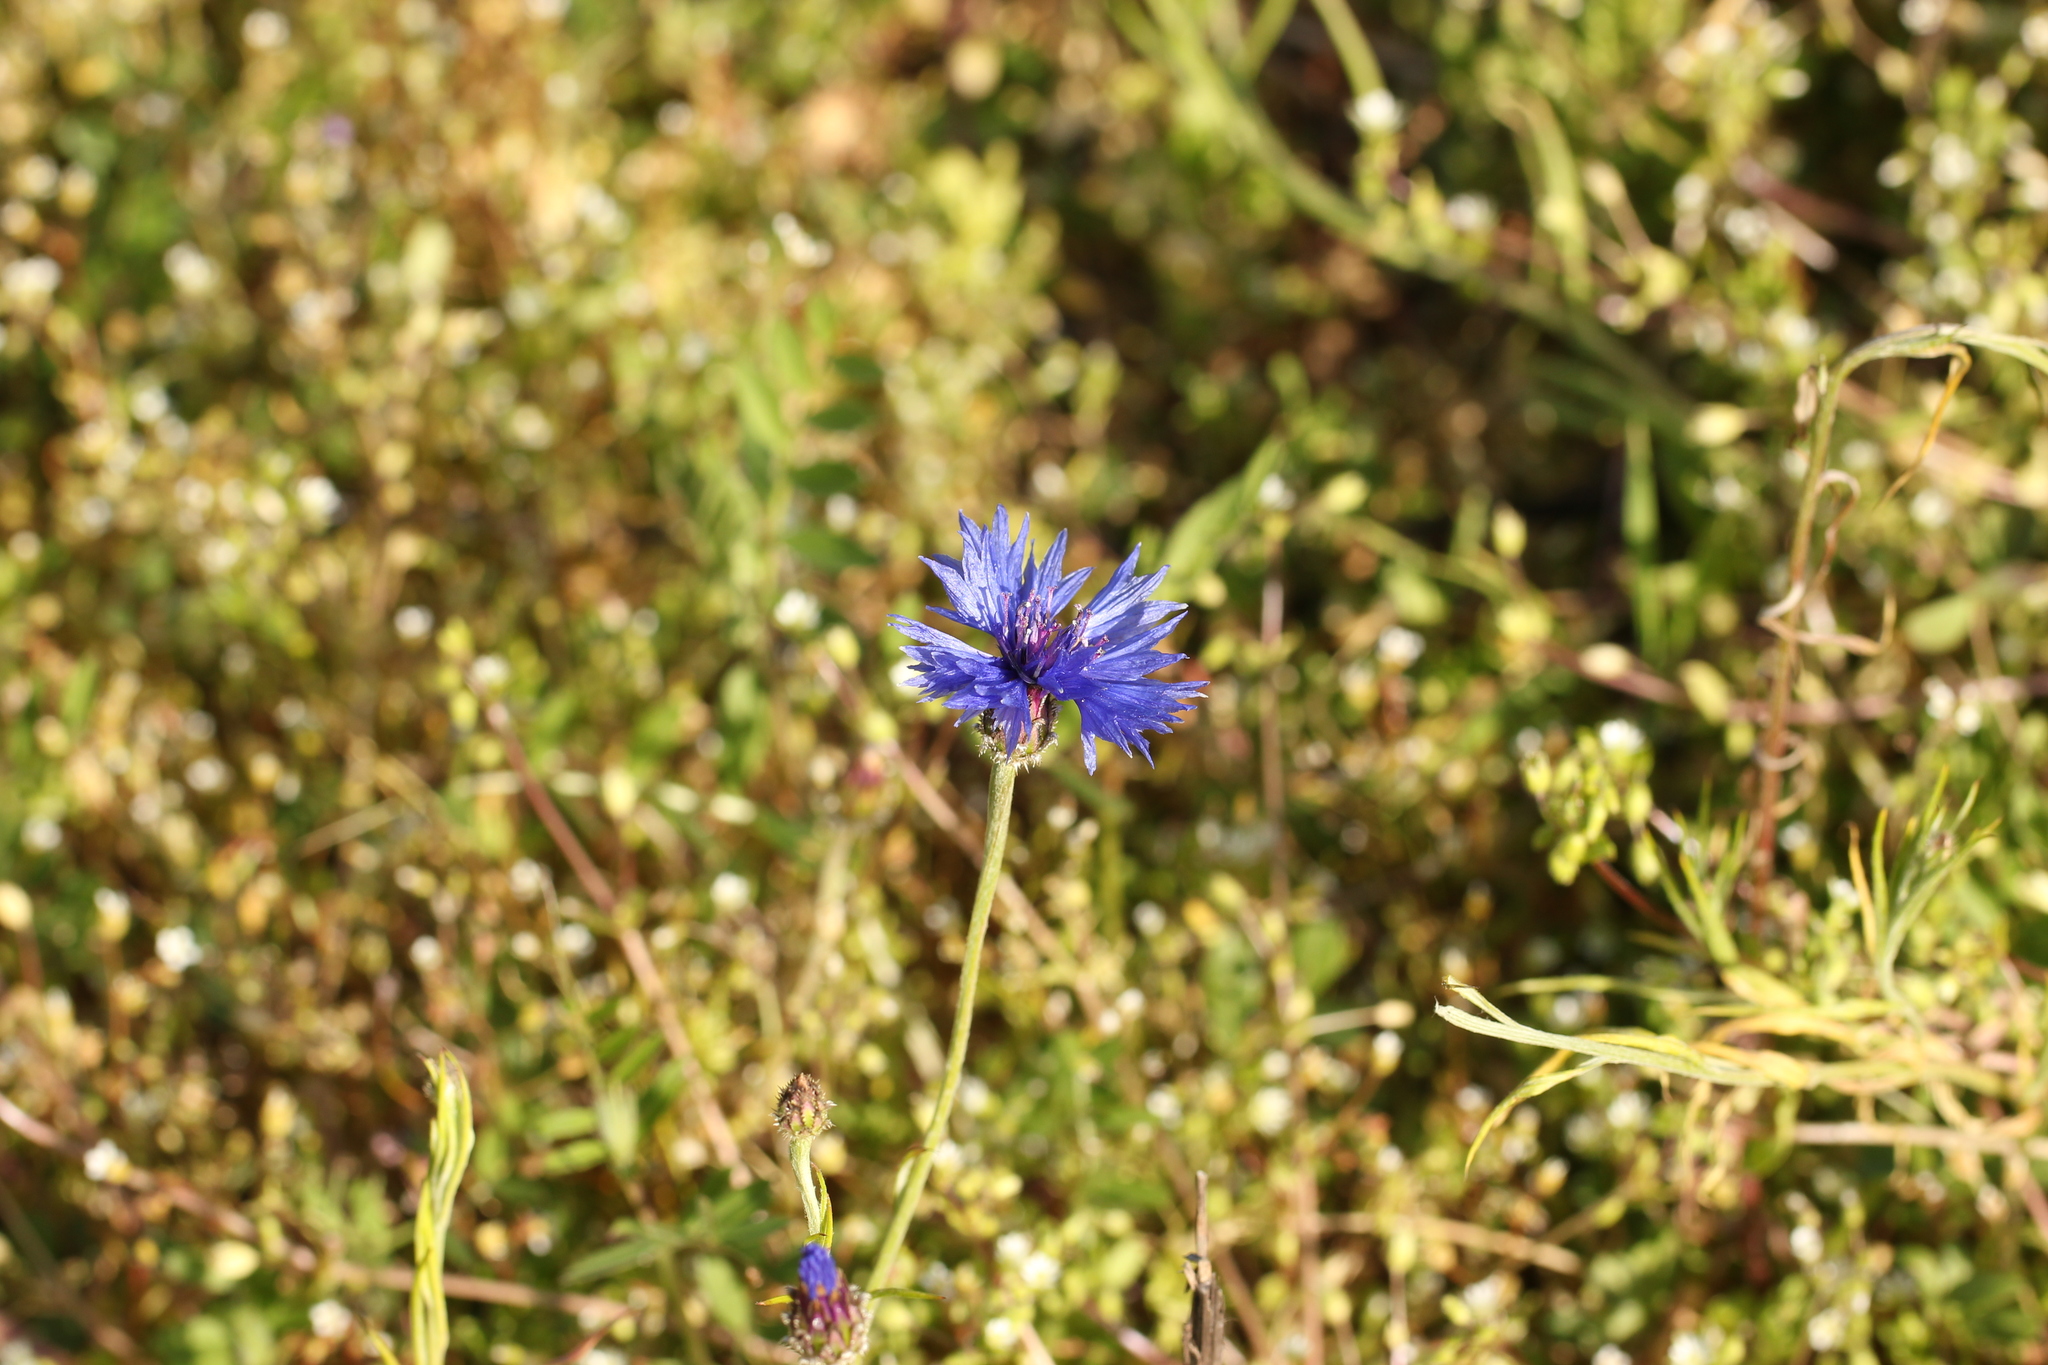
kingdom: Plantae
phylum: Tracheophyta
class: Magnoliopsida
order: Asterales
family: Asteraceae
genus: Centaurea
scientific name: Centaurea cyanus
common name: Cornflower
